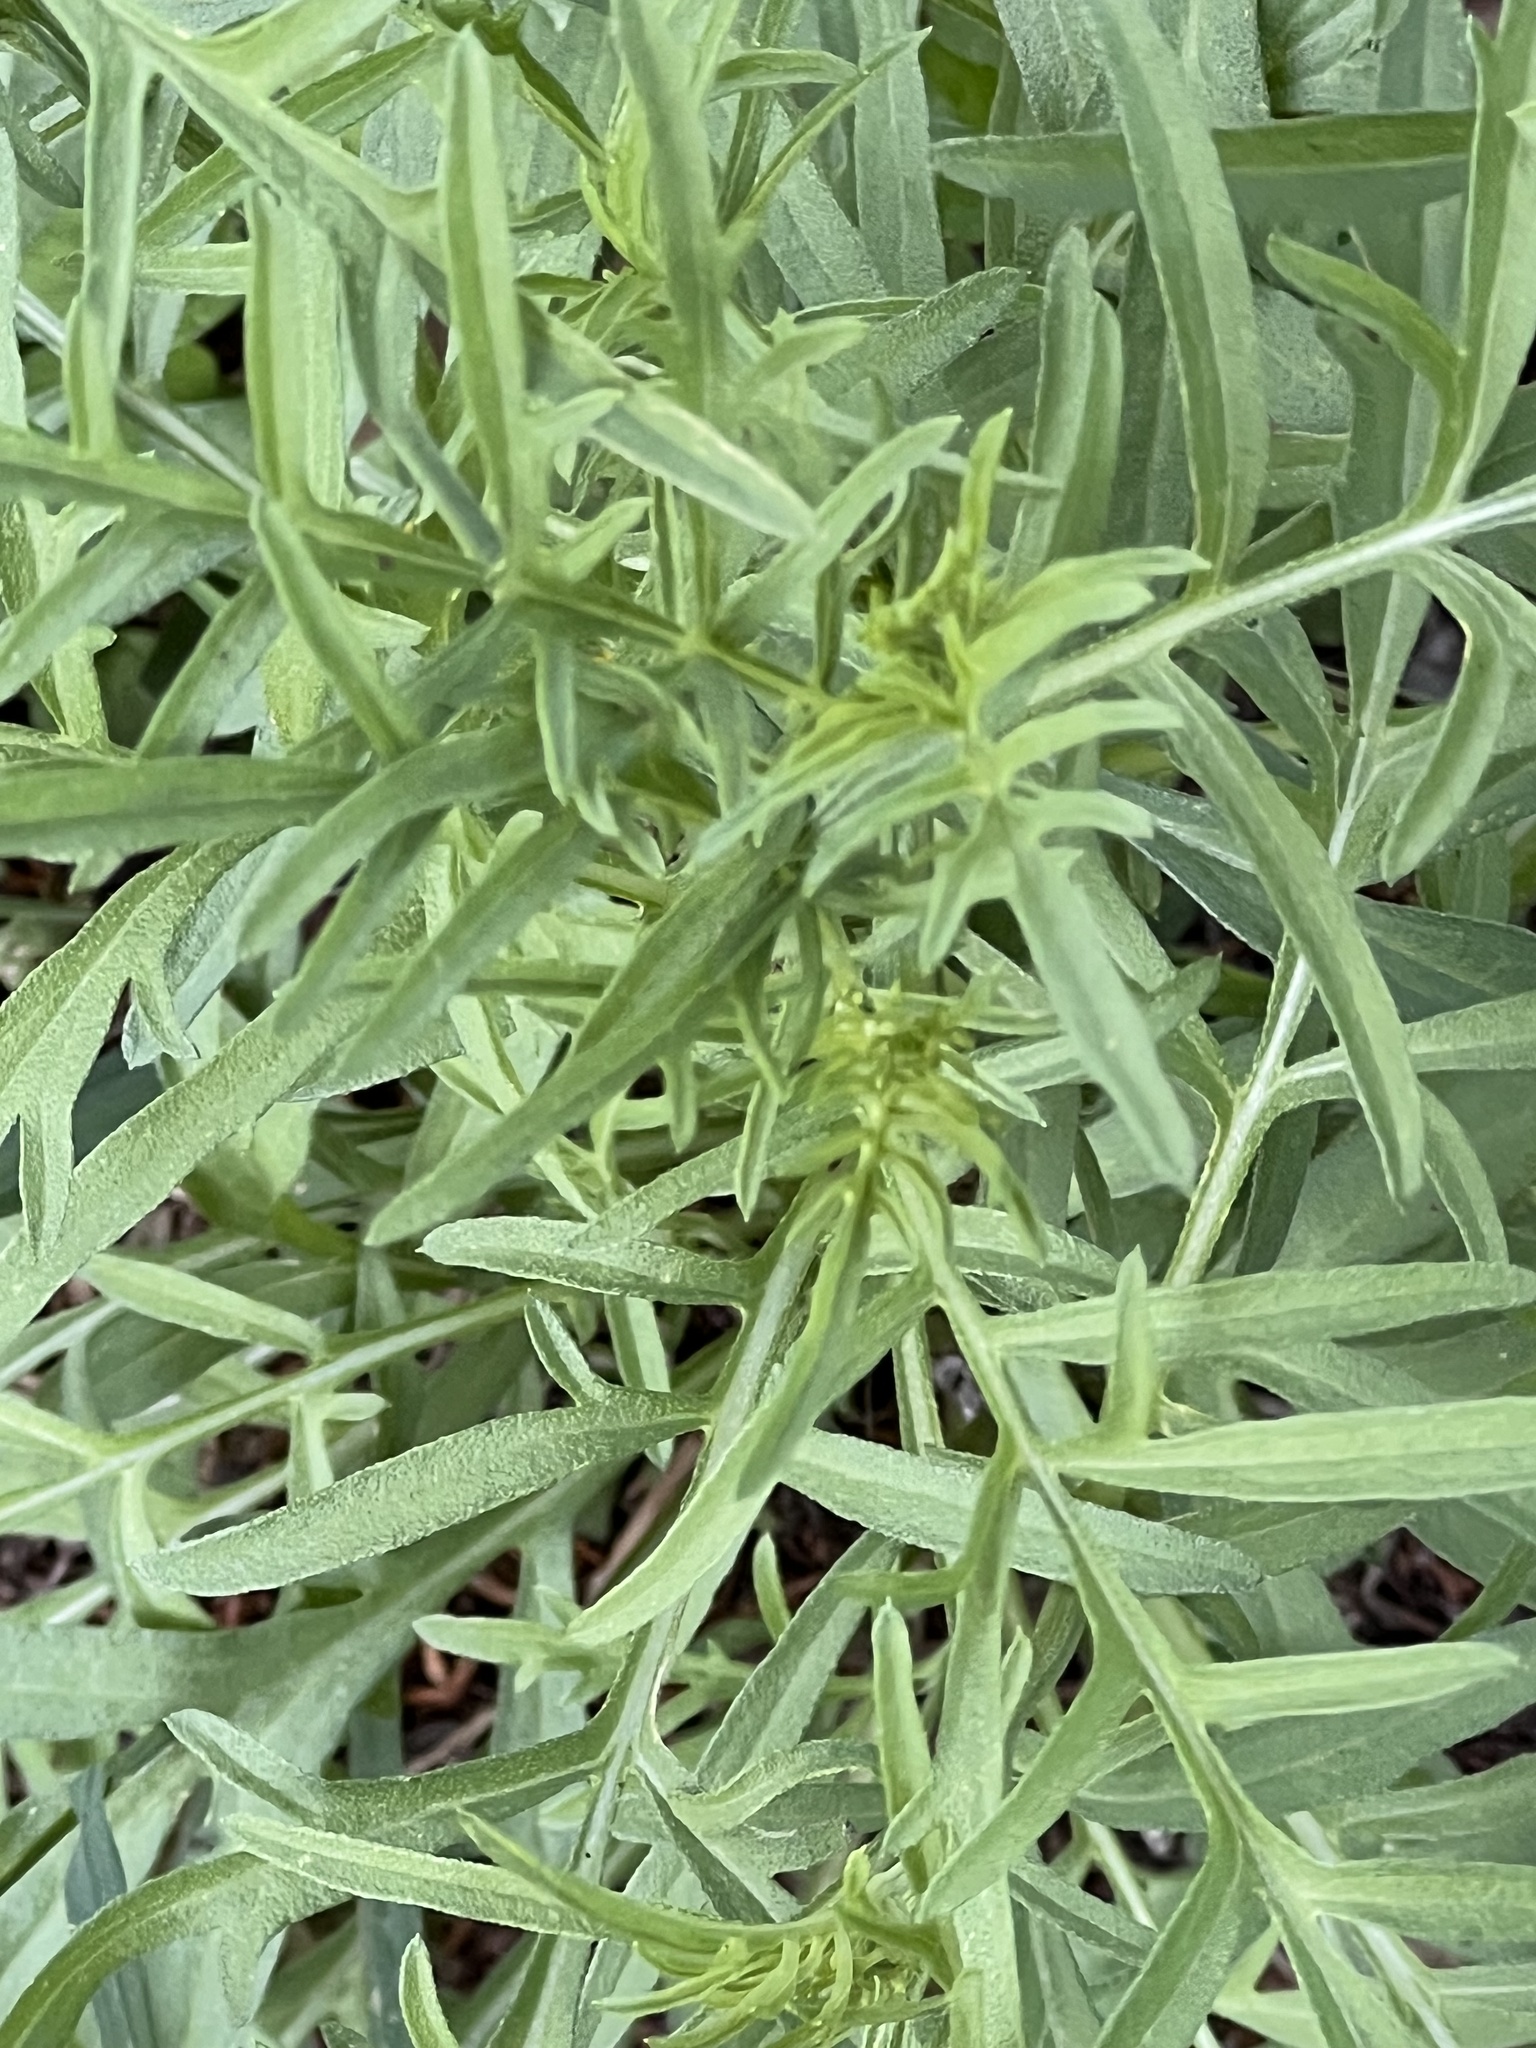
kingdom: Plantae
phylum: Tracheophyta
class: Magnoliopsida
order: Asterales
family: Asteraceae
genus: Ratibida
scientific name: Ratibida columnifera
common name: Prairie coneflower
